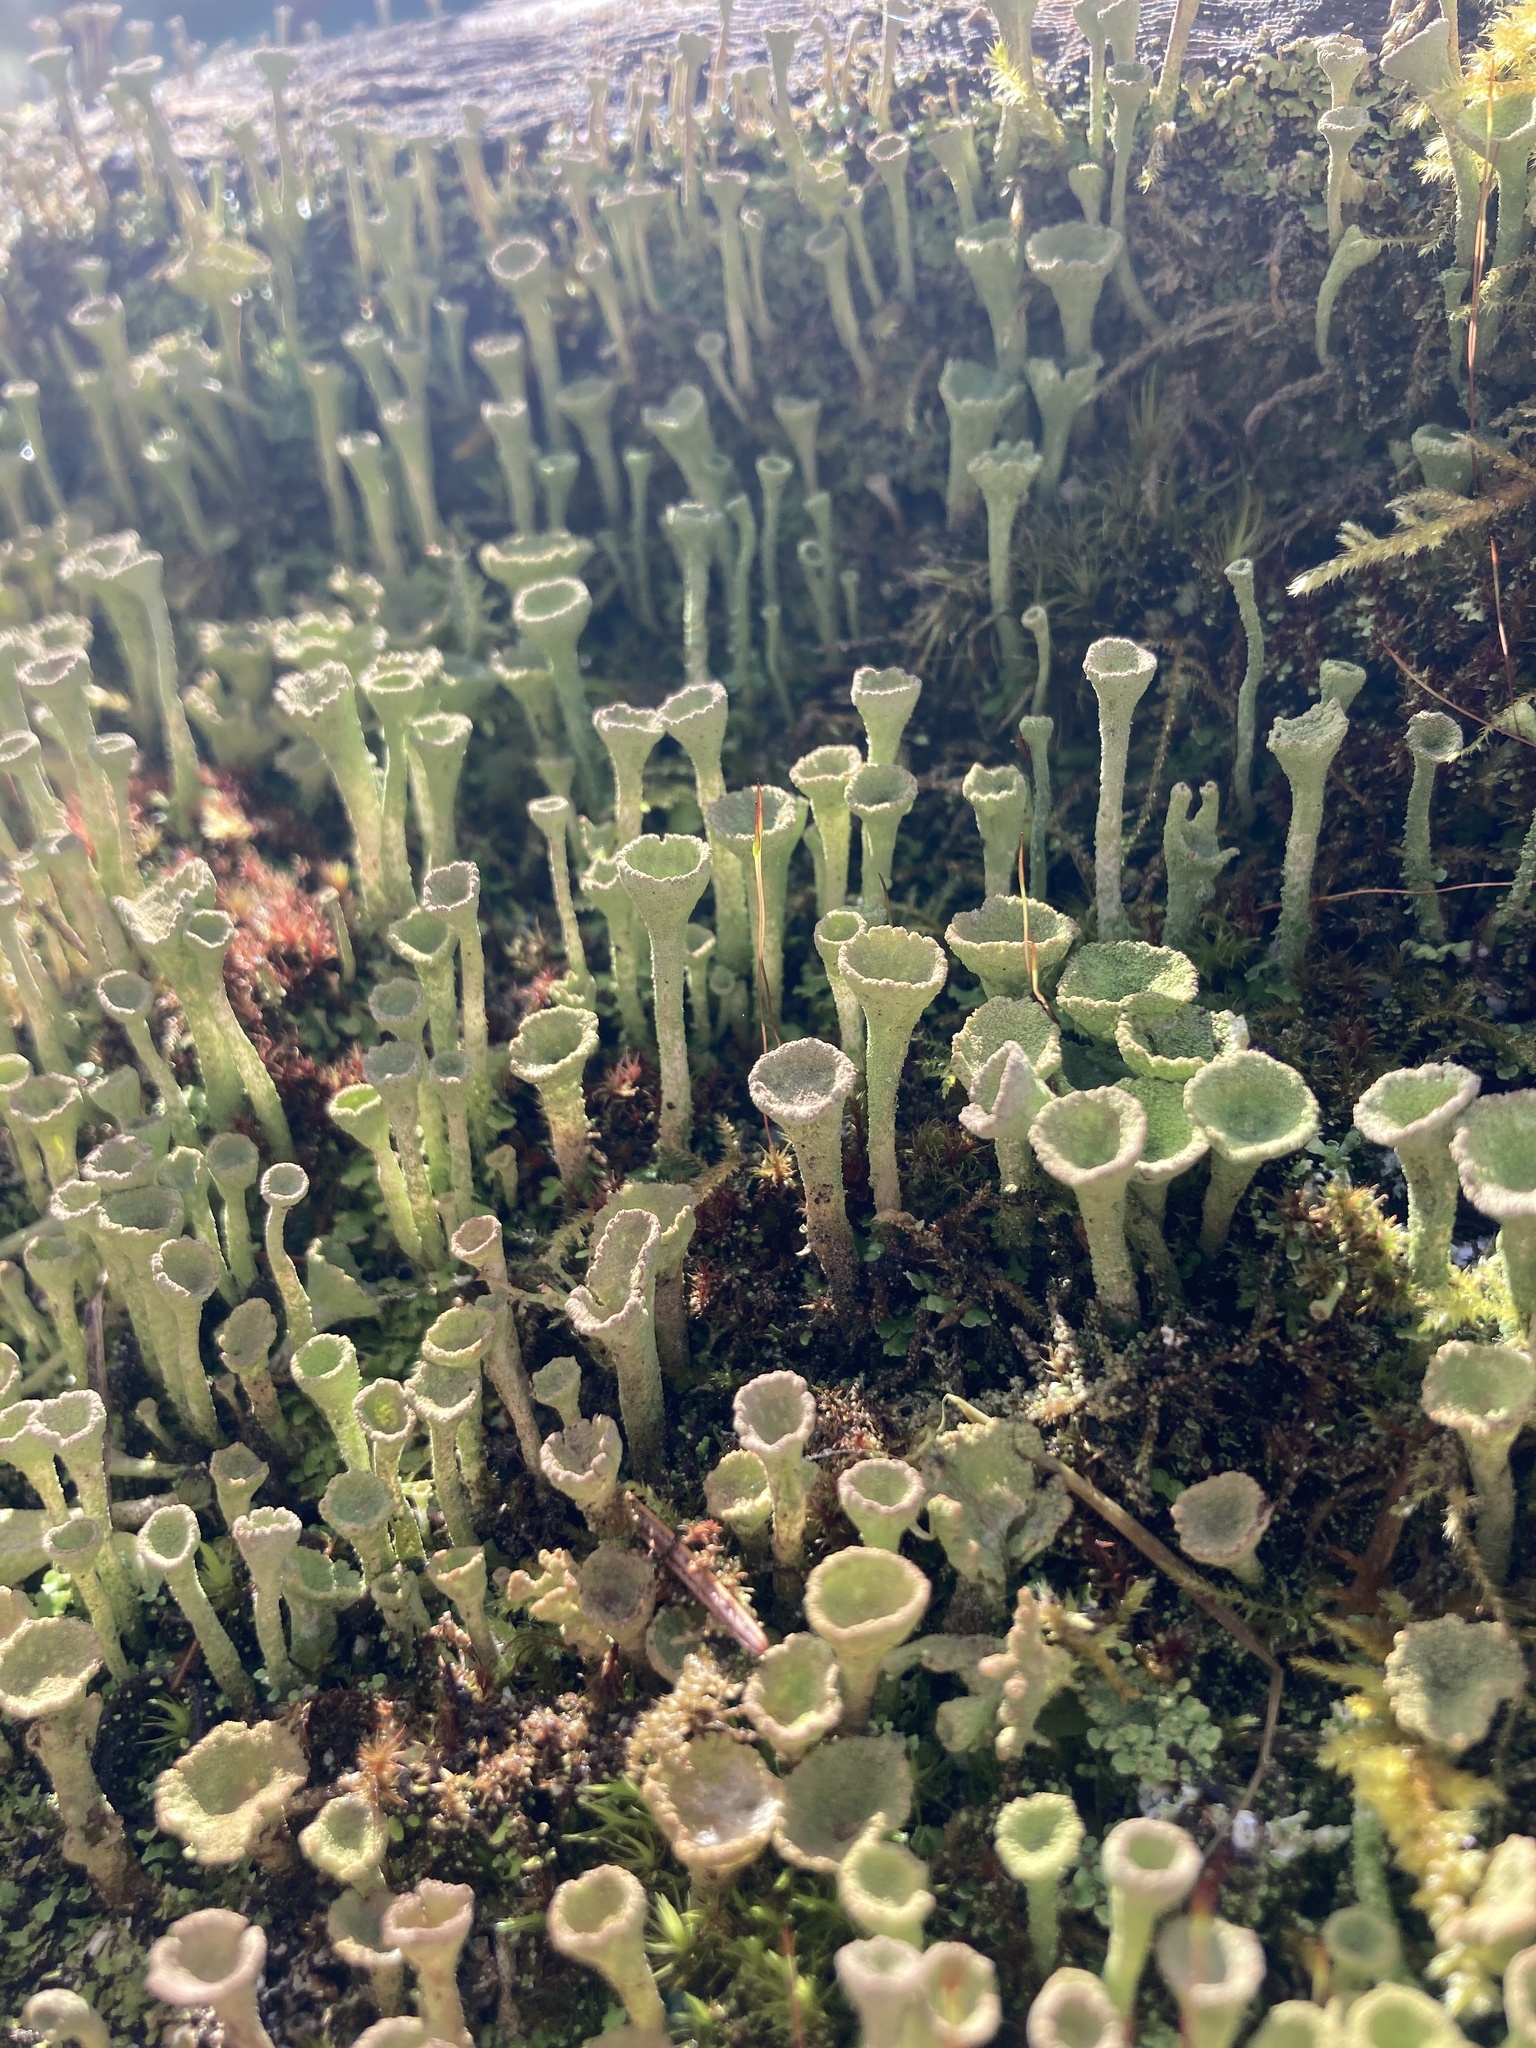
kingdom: Fungi
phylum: Ascomycota
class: Lecanoromycetes
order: Lecanorales
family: Cladoniaceae
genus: Cladonia
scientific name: Cladonia fimbriata
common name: Powdered trumpet lichen
